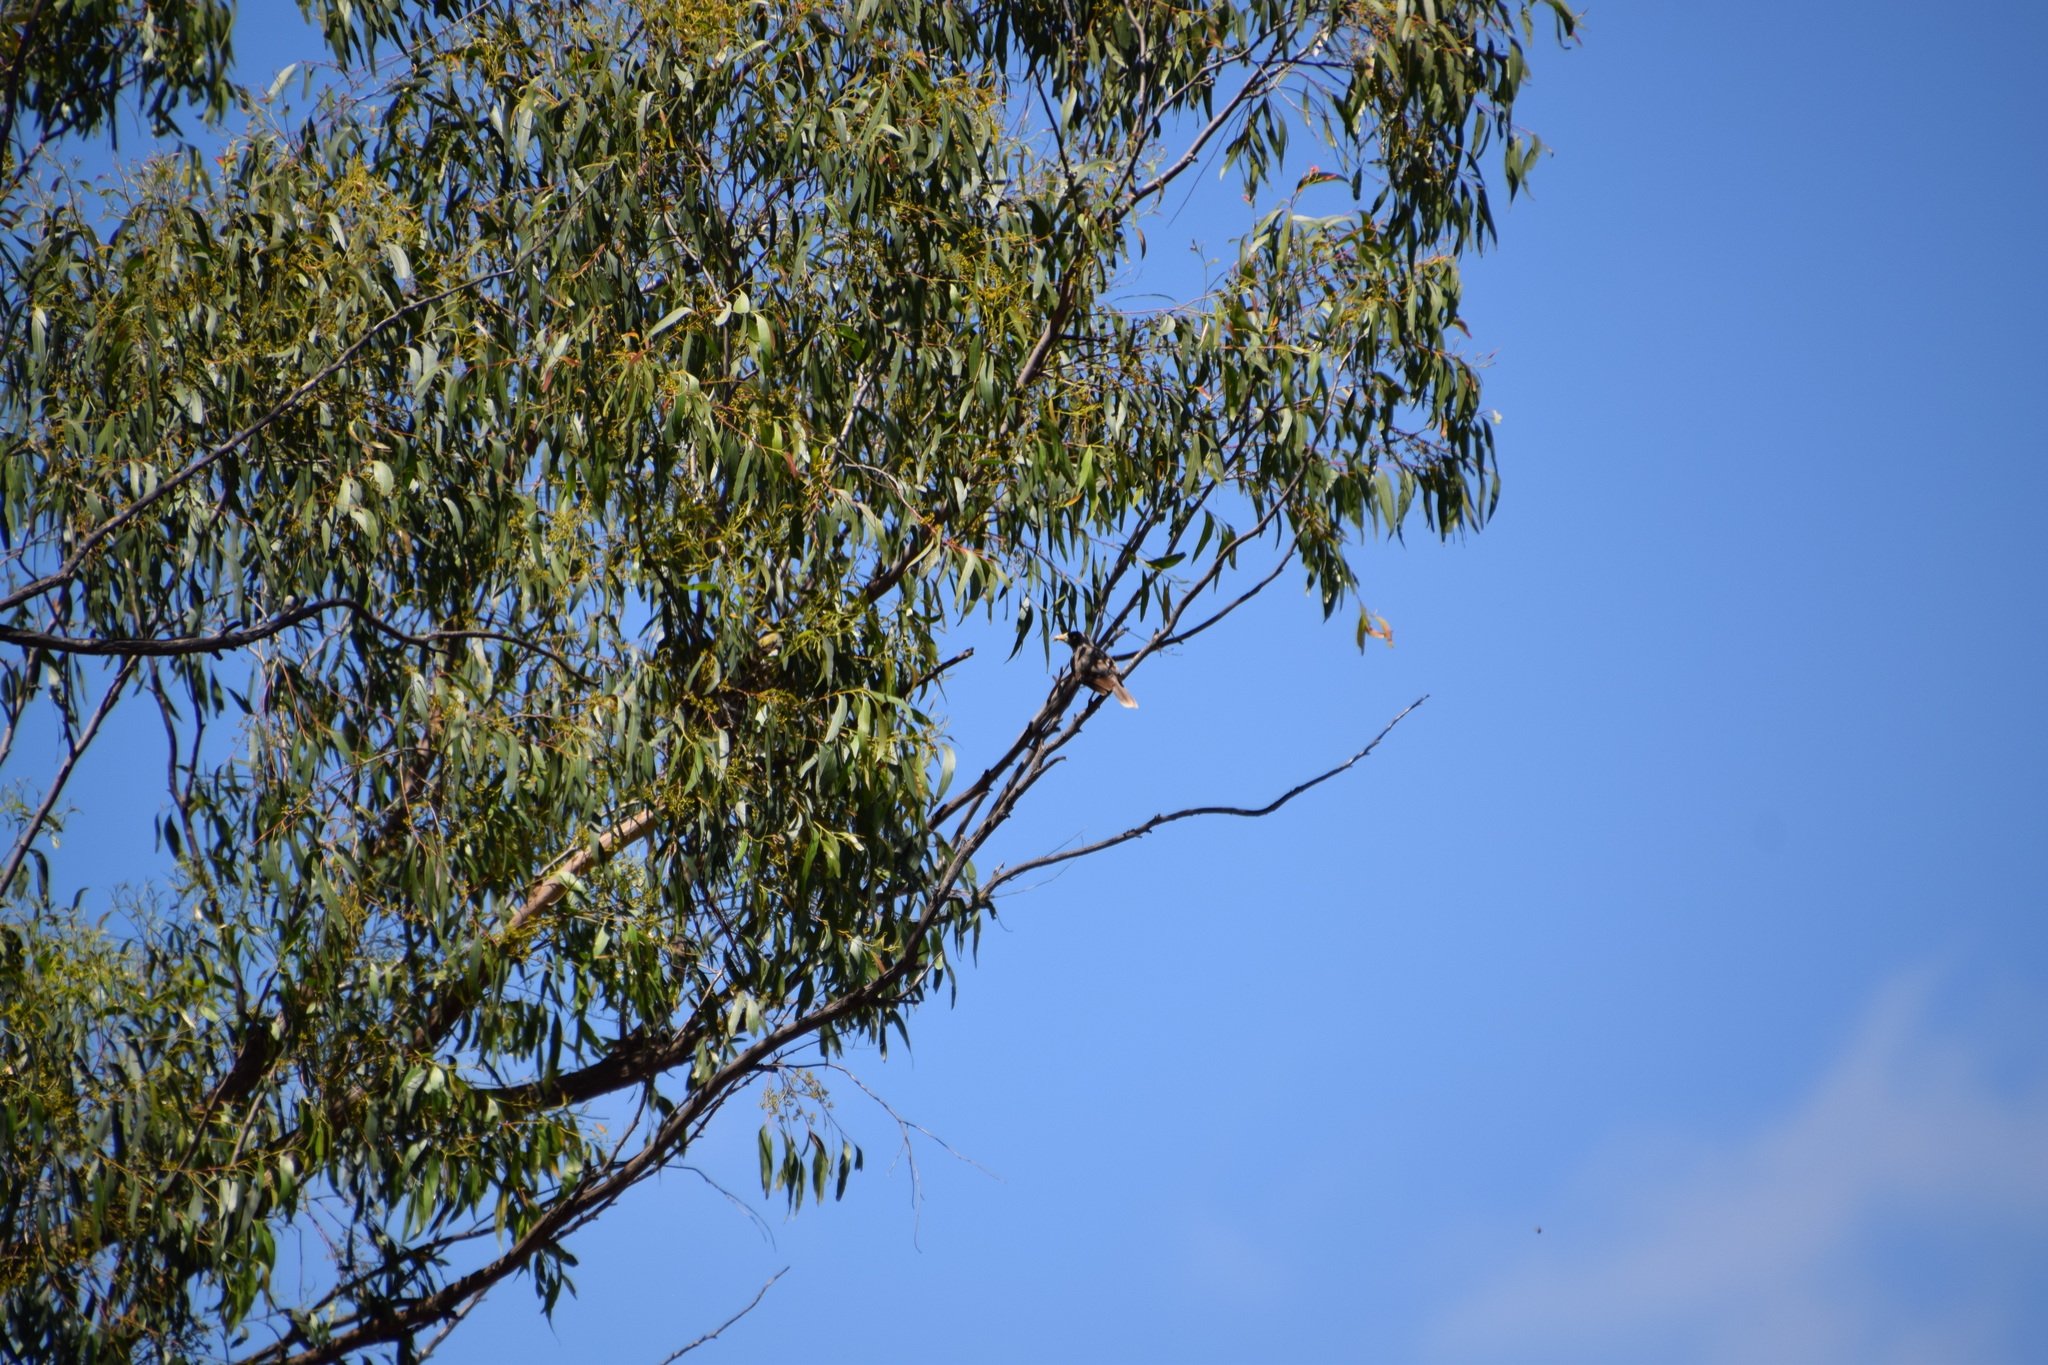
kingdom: Animalia
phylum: Chordata
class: Aves
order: Passeriformes
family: Meliphagidae
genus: Manorina
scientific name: Manorina melanocephala
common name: Noisy miner
